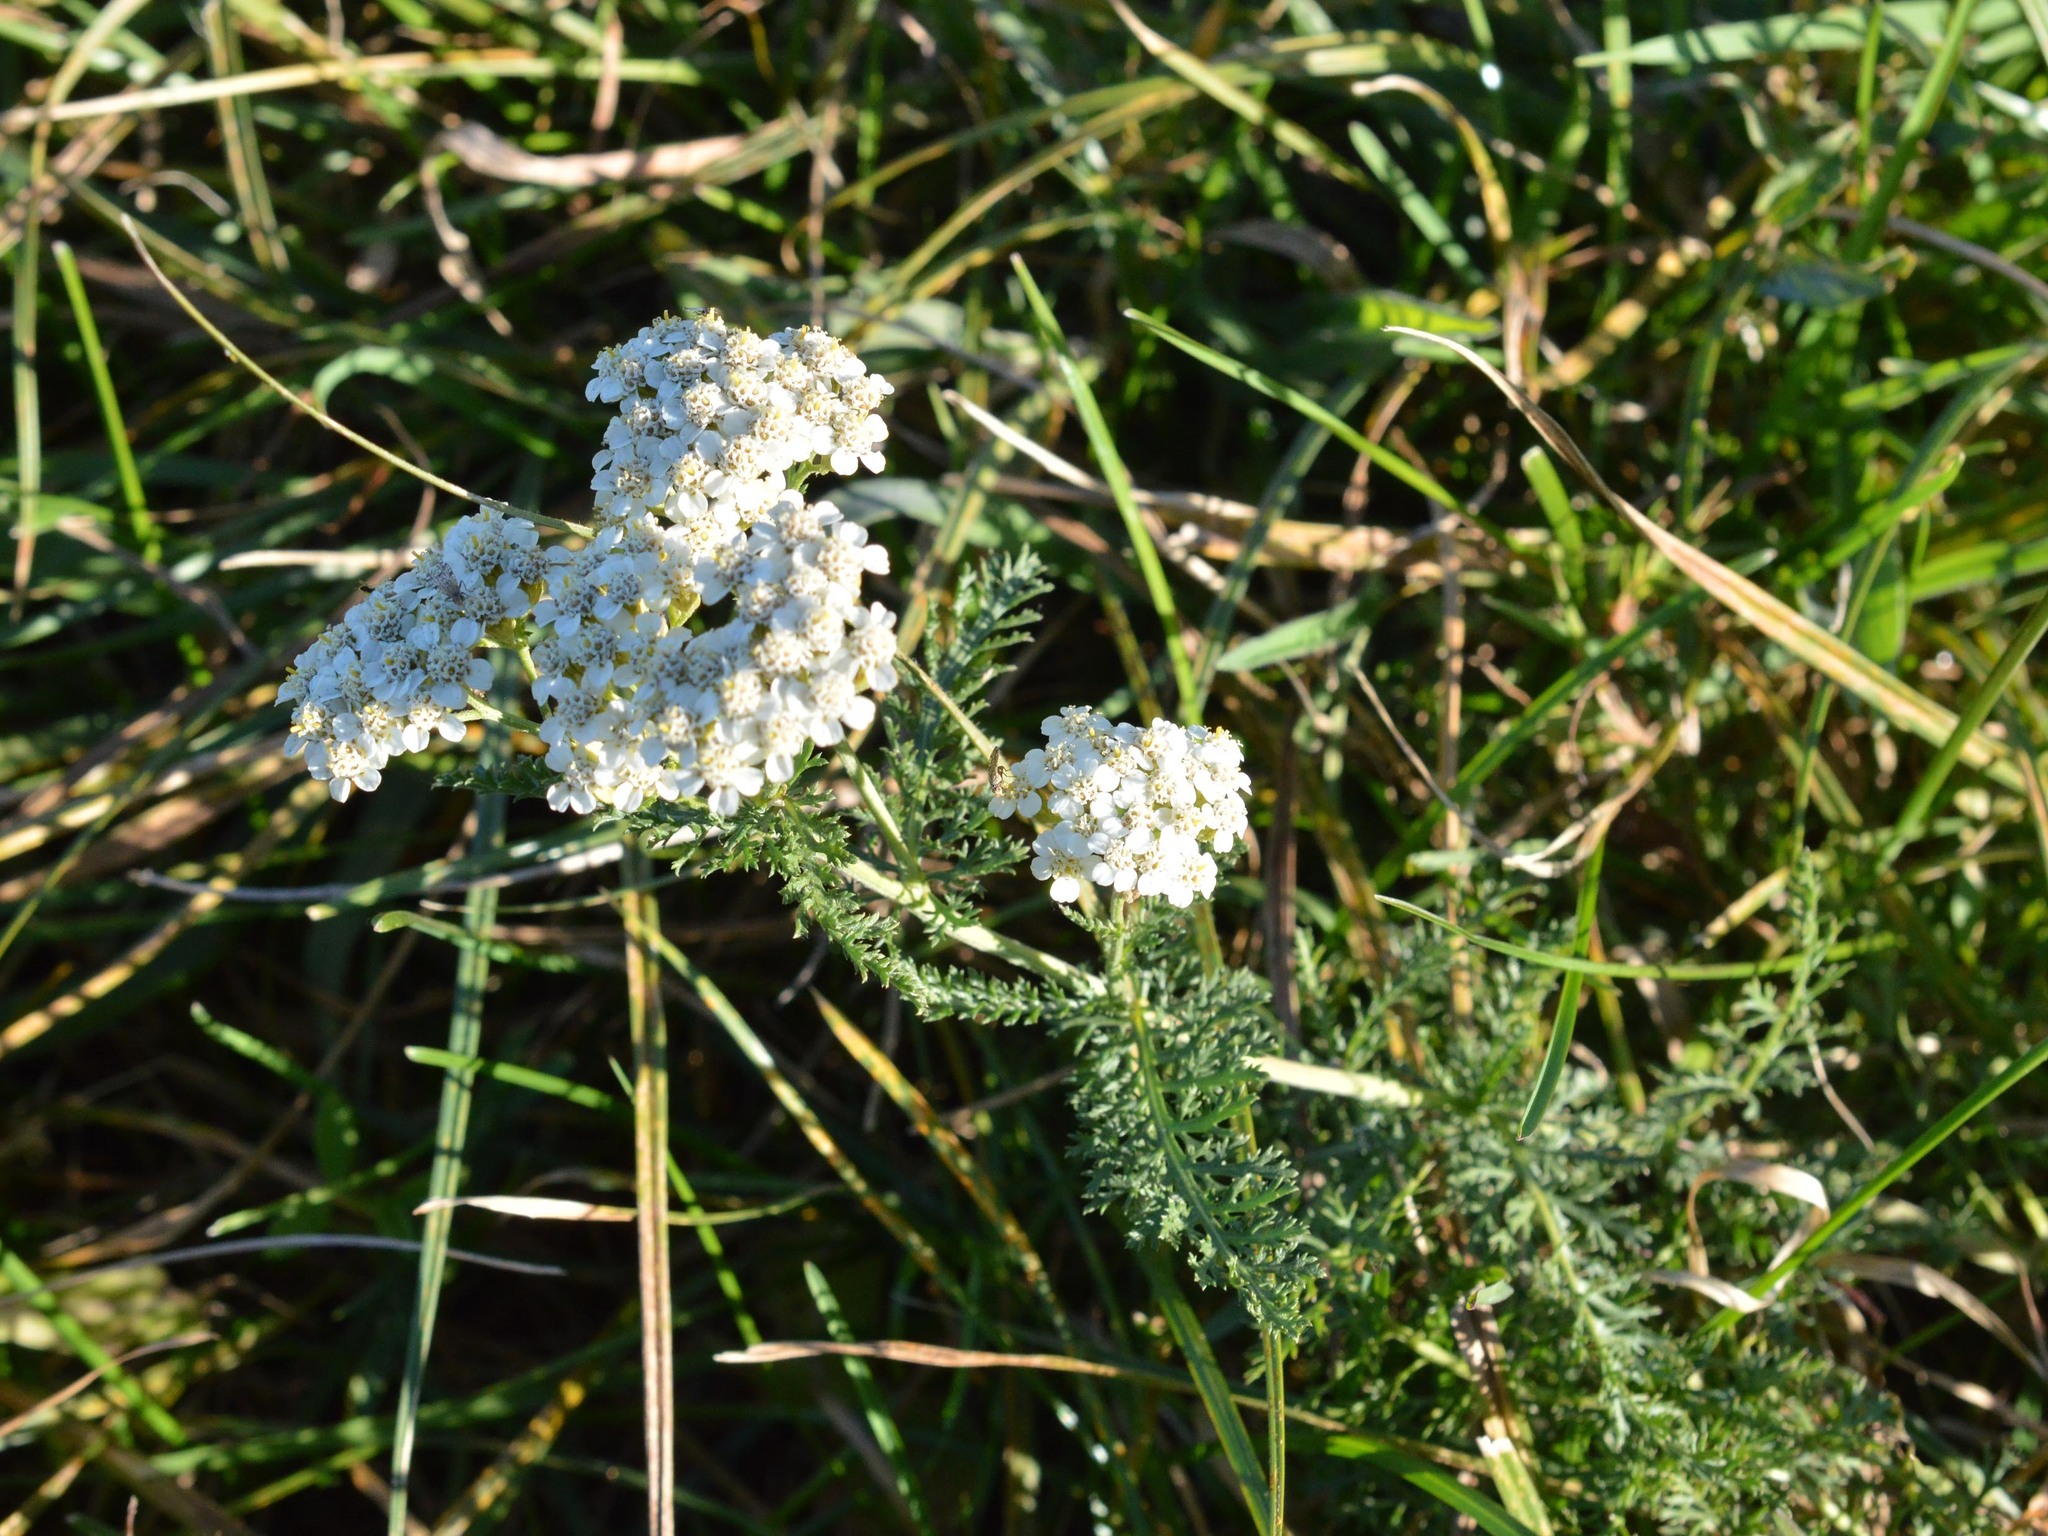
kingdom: Plantae
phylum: Tracheophyta
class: Magnoliopsida
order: Asterales
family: Asteraceae
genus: Achillea
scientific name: Achillea millefolium
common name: Yarrow
